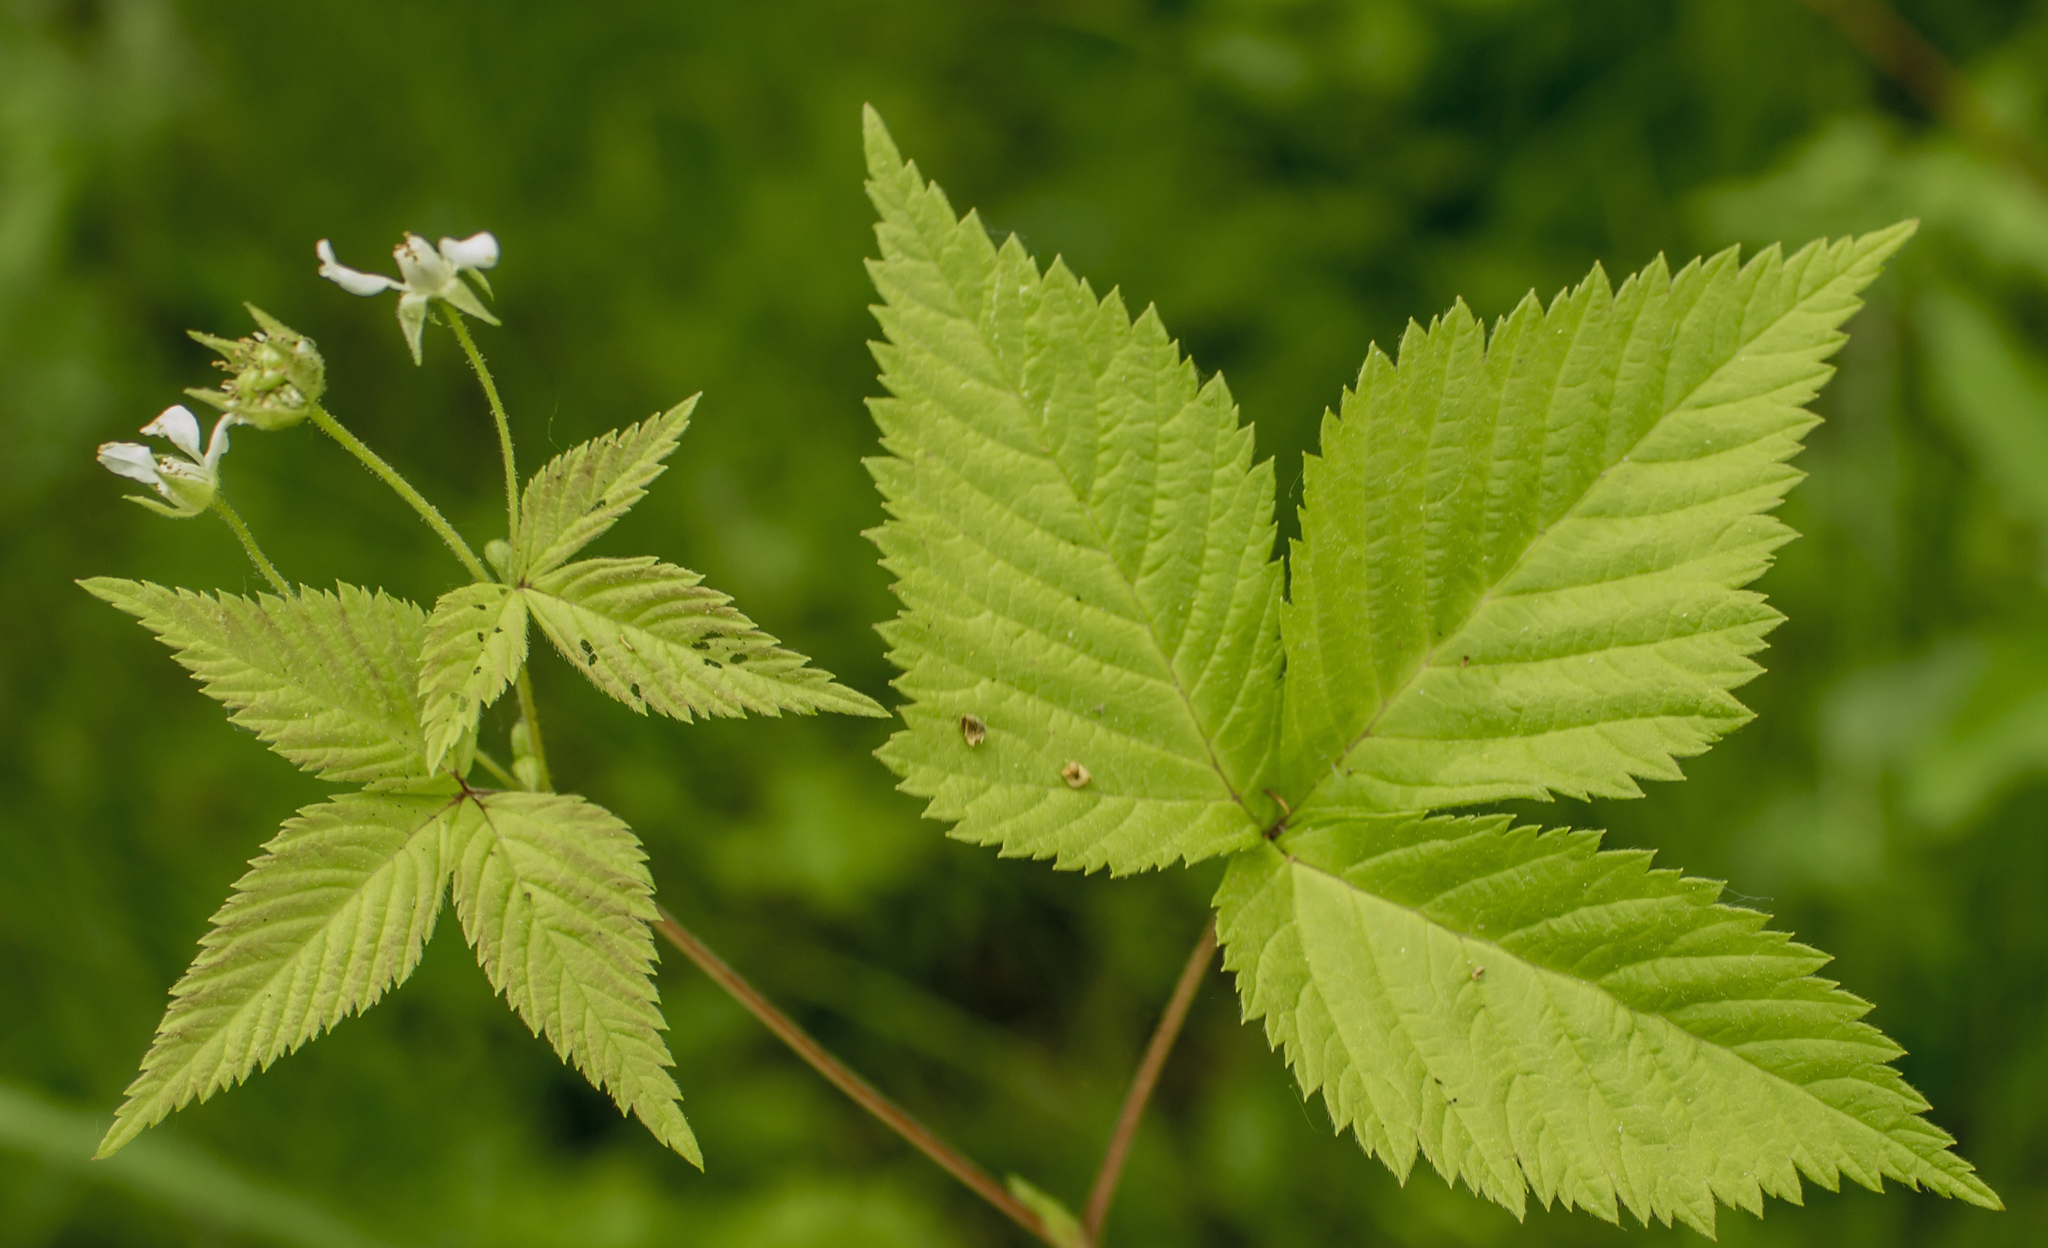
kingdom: Plantae
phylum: Tracheophyta
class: Magnoliopsida
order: Rosales
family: Rosaceae
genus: Rubus
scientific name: Rubus pubescens
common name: Dwarf raspberry
